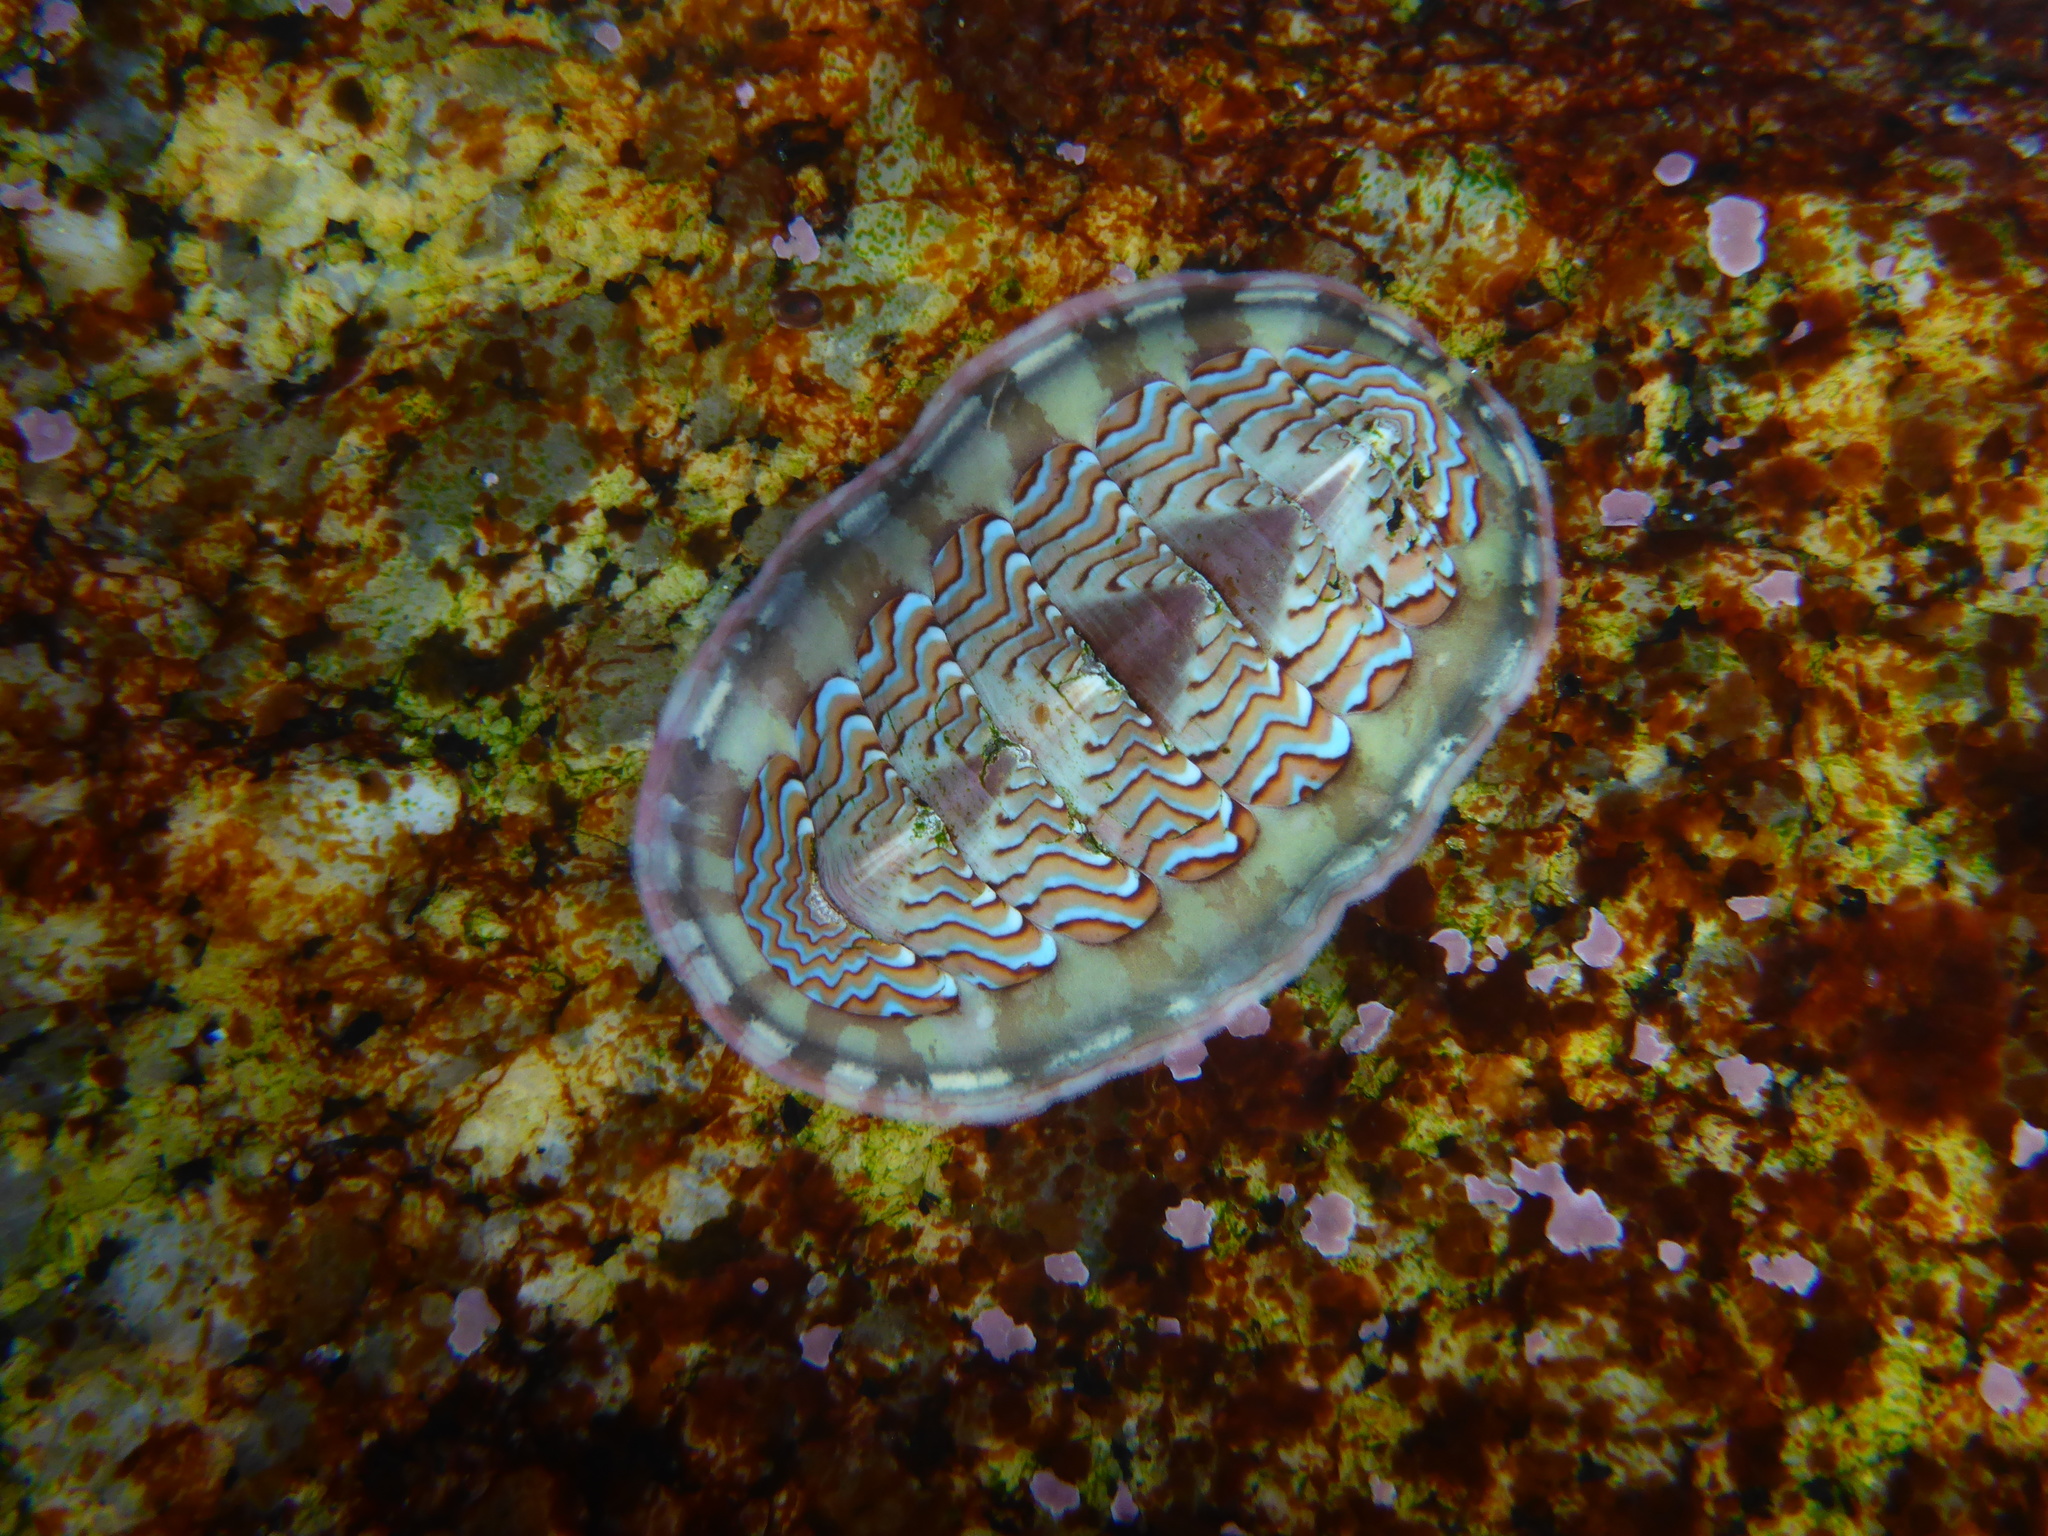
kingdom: Animalia
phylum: Mollusca
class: Polyplacophora
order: Chitonida
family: Tonicellidae
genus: Tonicella
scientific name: Tonicella lokii
